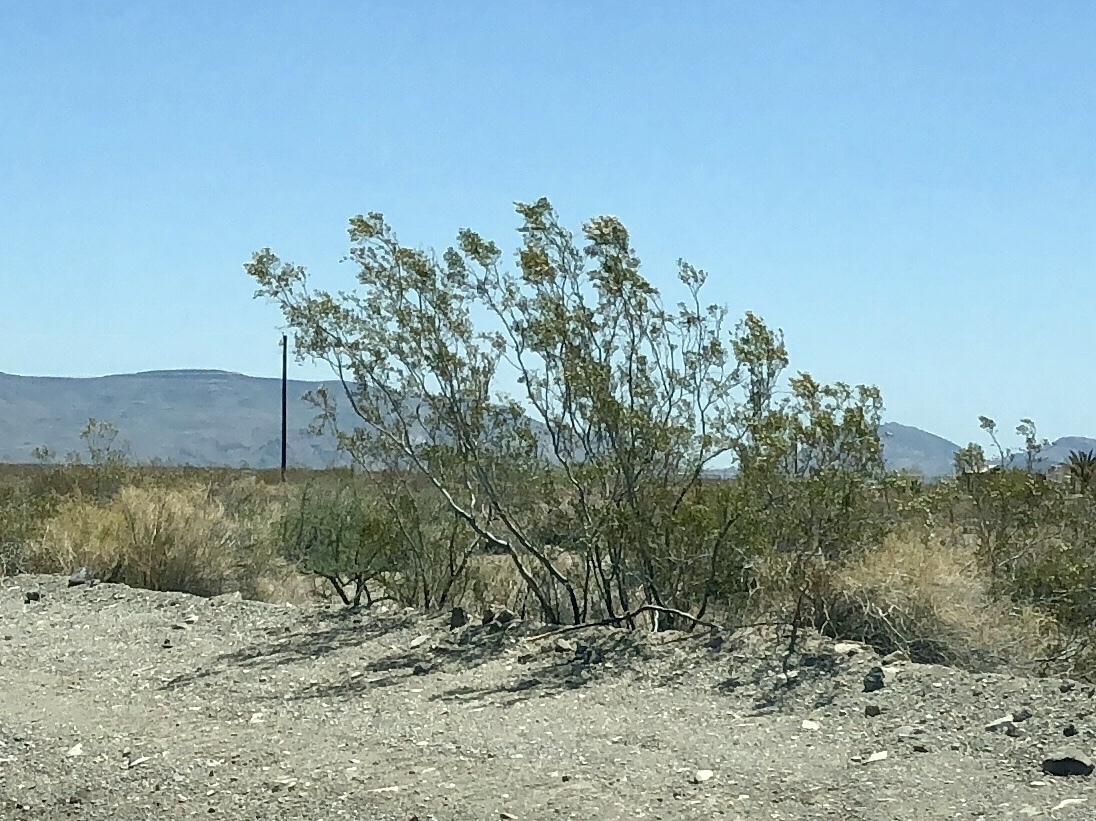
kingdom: Plantae
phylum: Tracheophyta
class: Magnoliopsida
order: Zygophyllales
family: Zygophyllaceae
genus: Larrea
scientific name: Larrea tridentata
